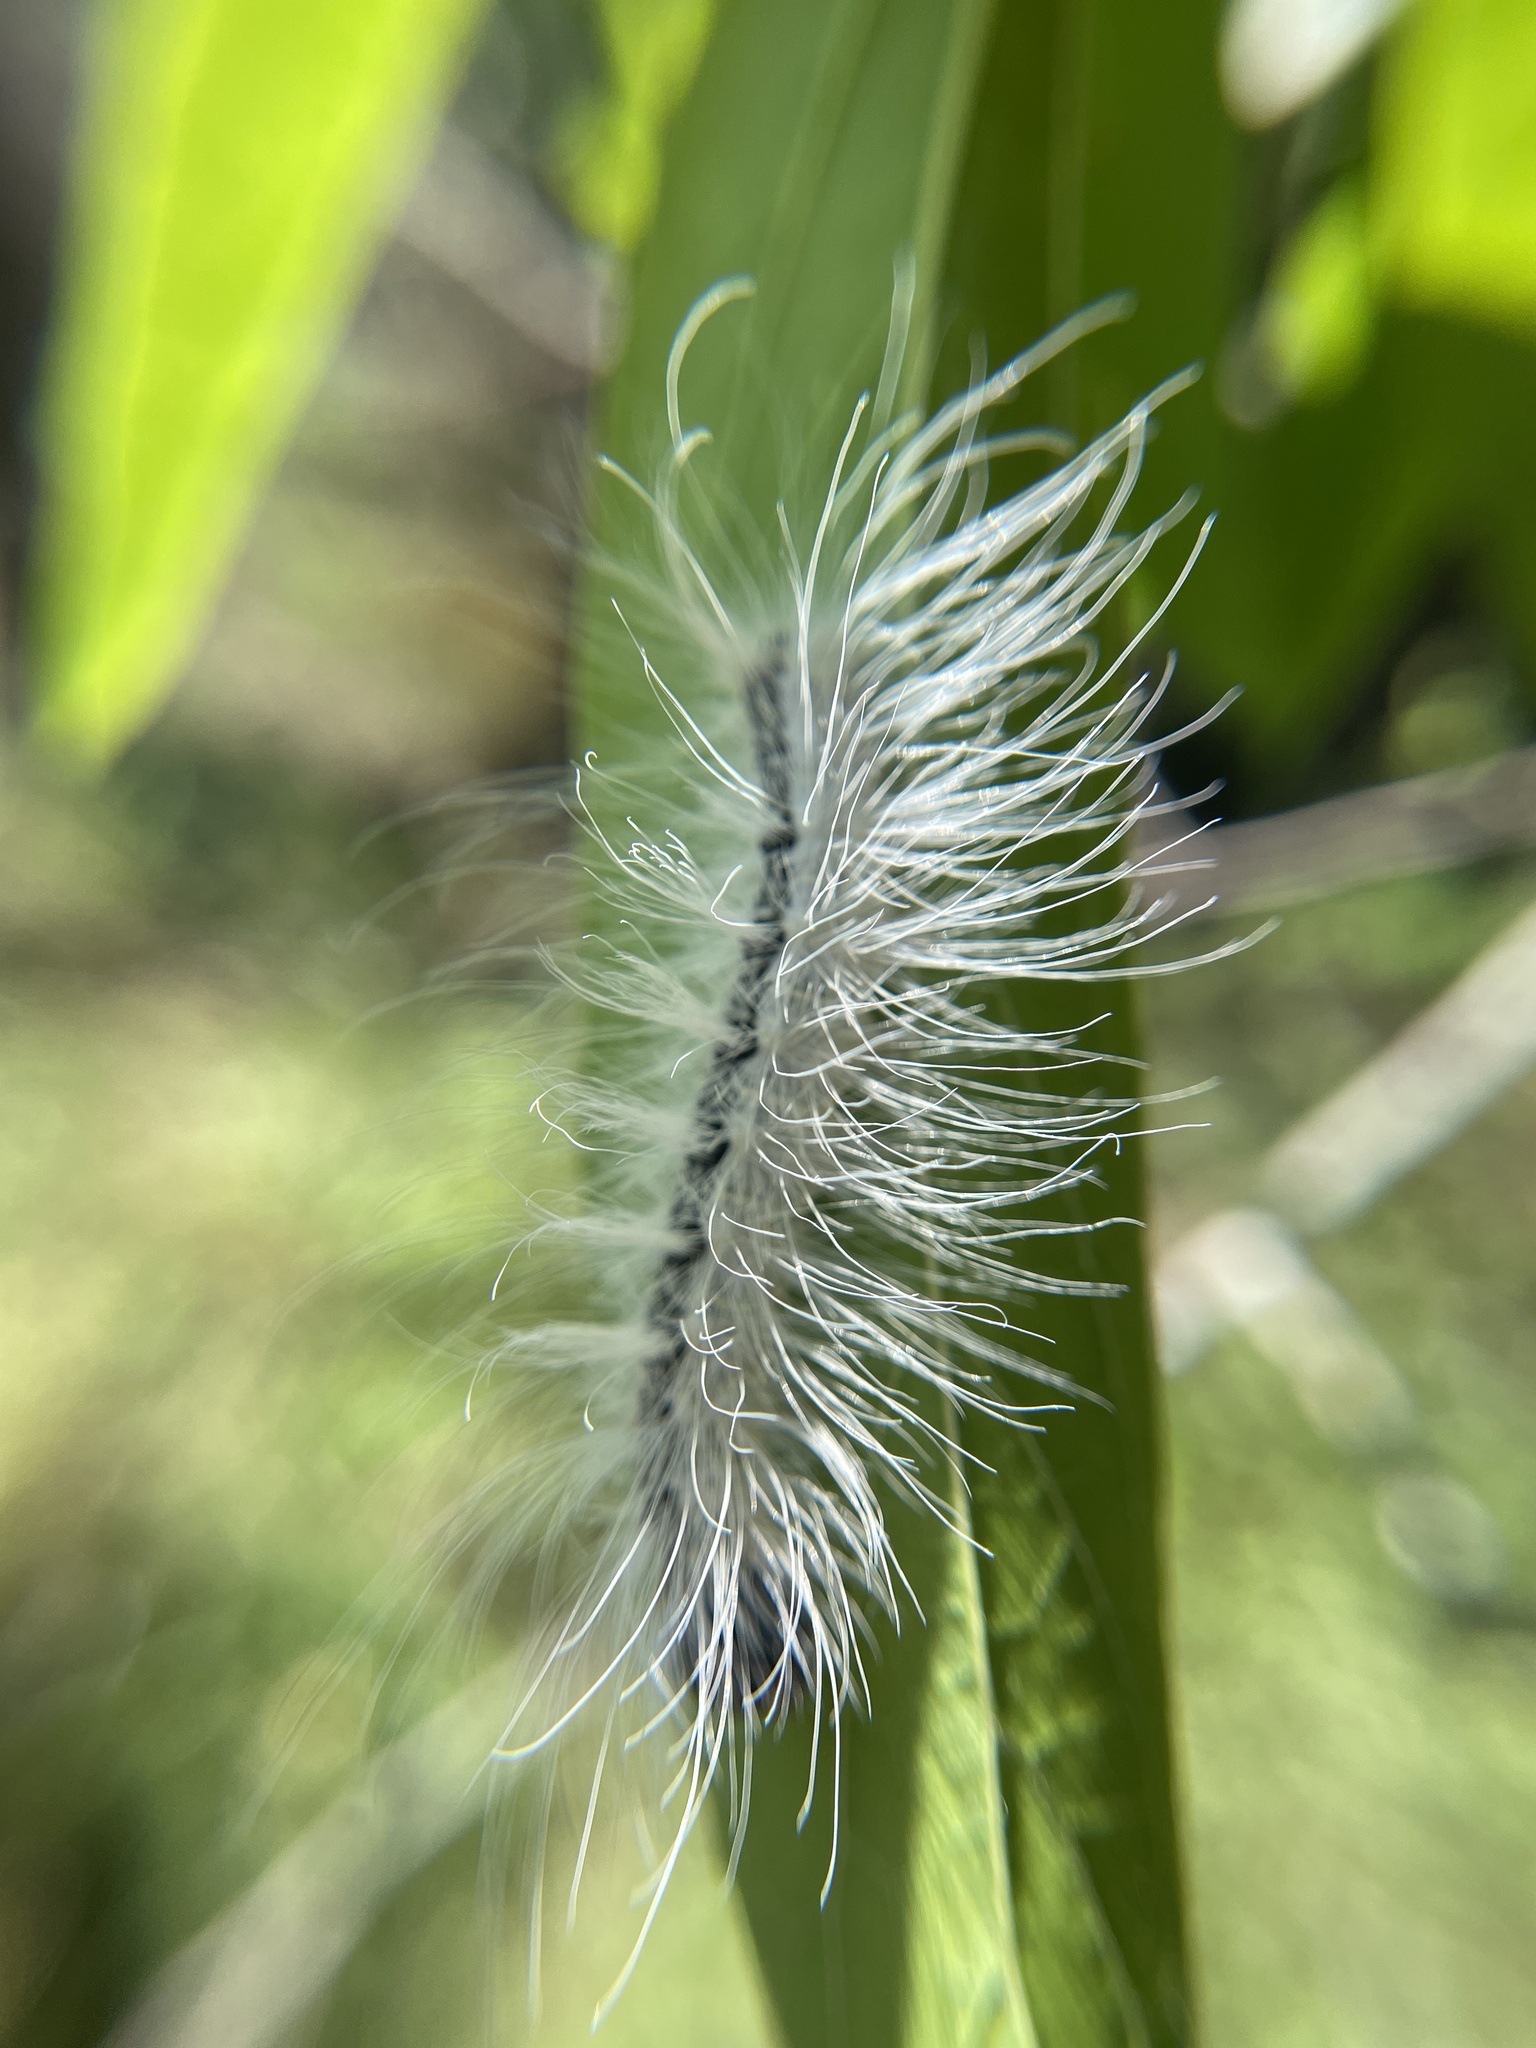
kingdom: Animalia
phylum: Arthropoda
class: Insecta
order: Lepidoptera
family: Noctuidae
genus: Acronicta
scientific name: Acronicta rubricoma
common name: Hackberry dagger
